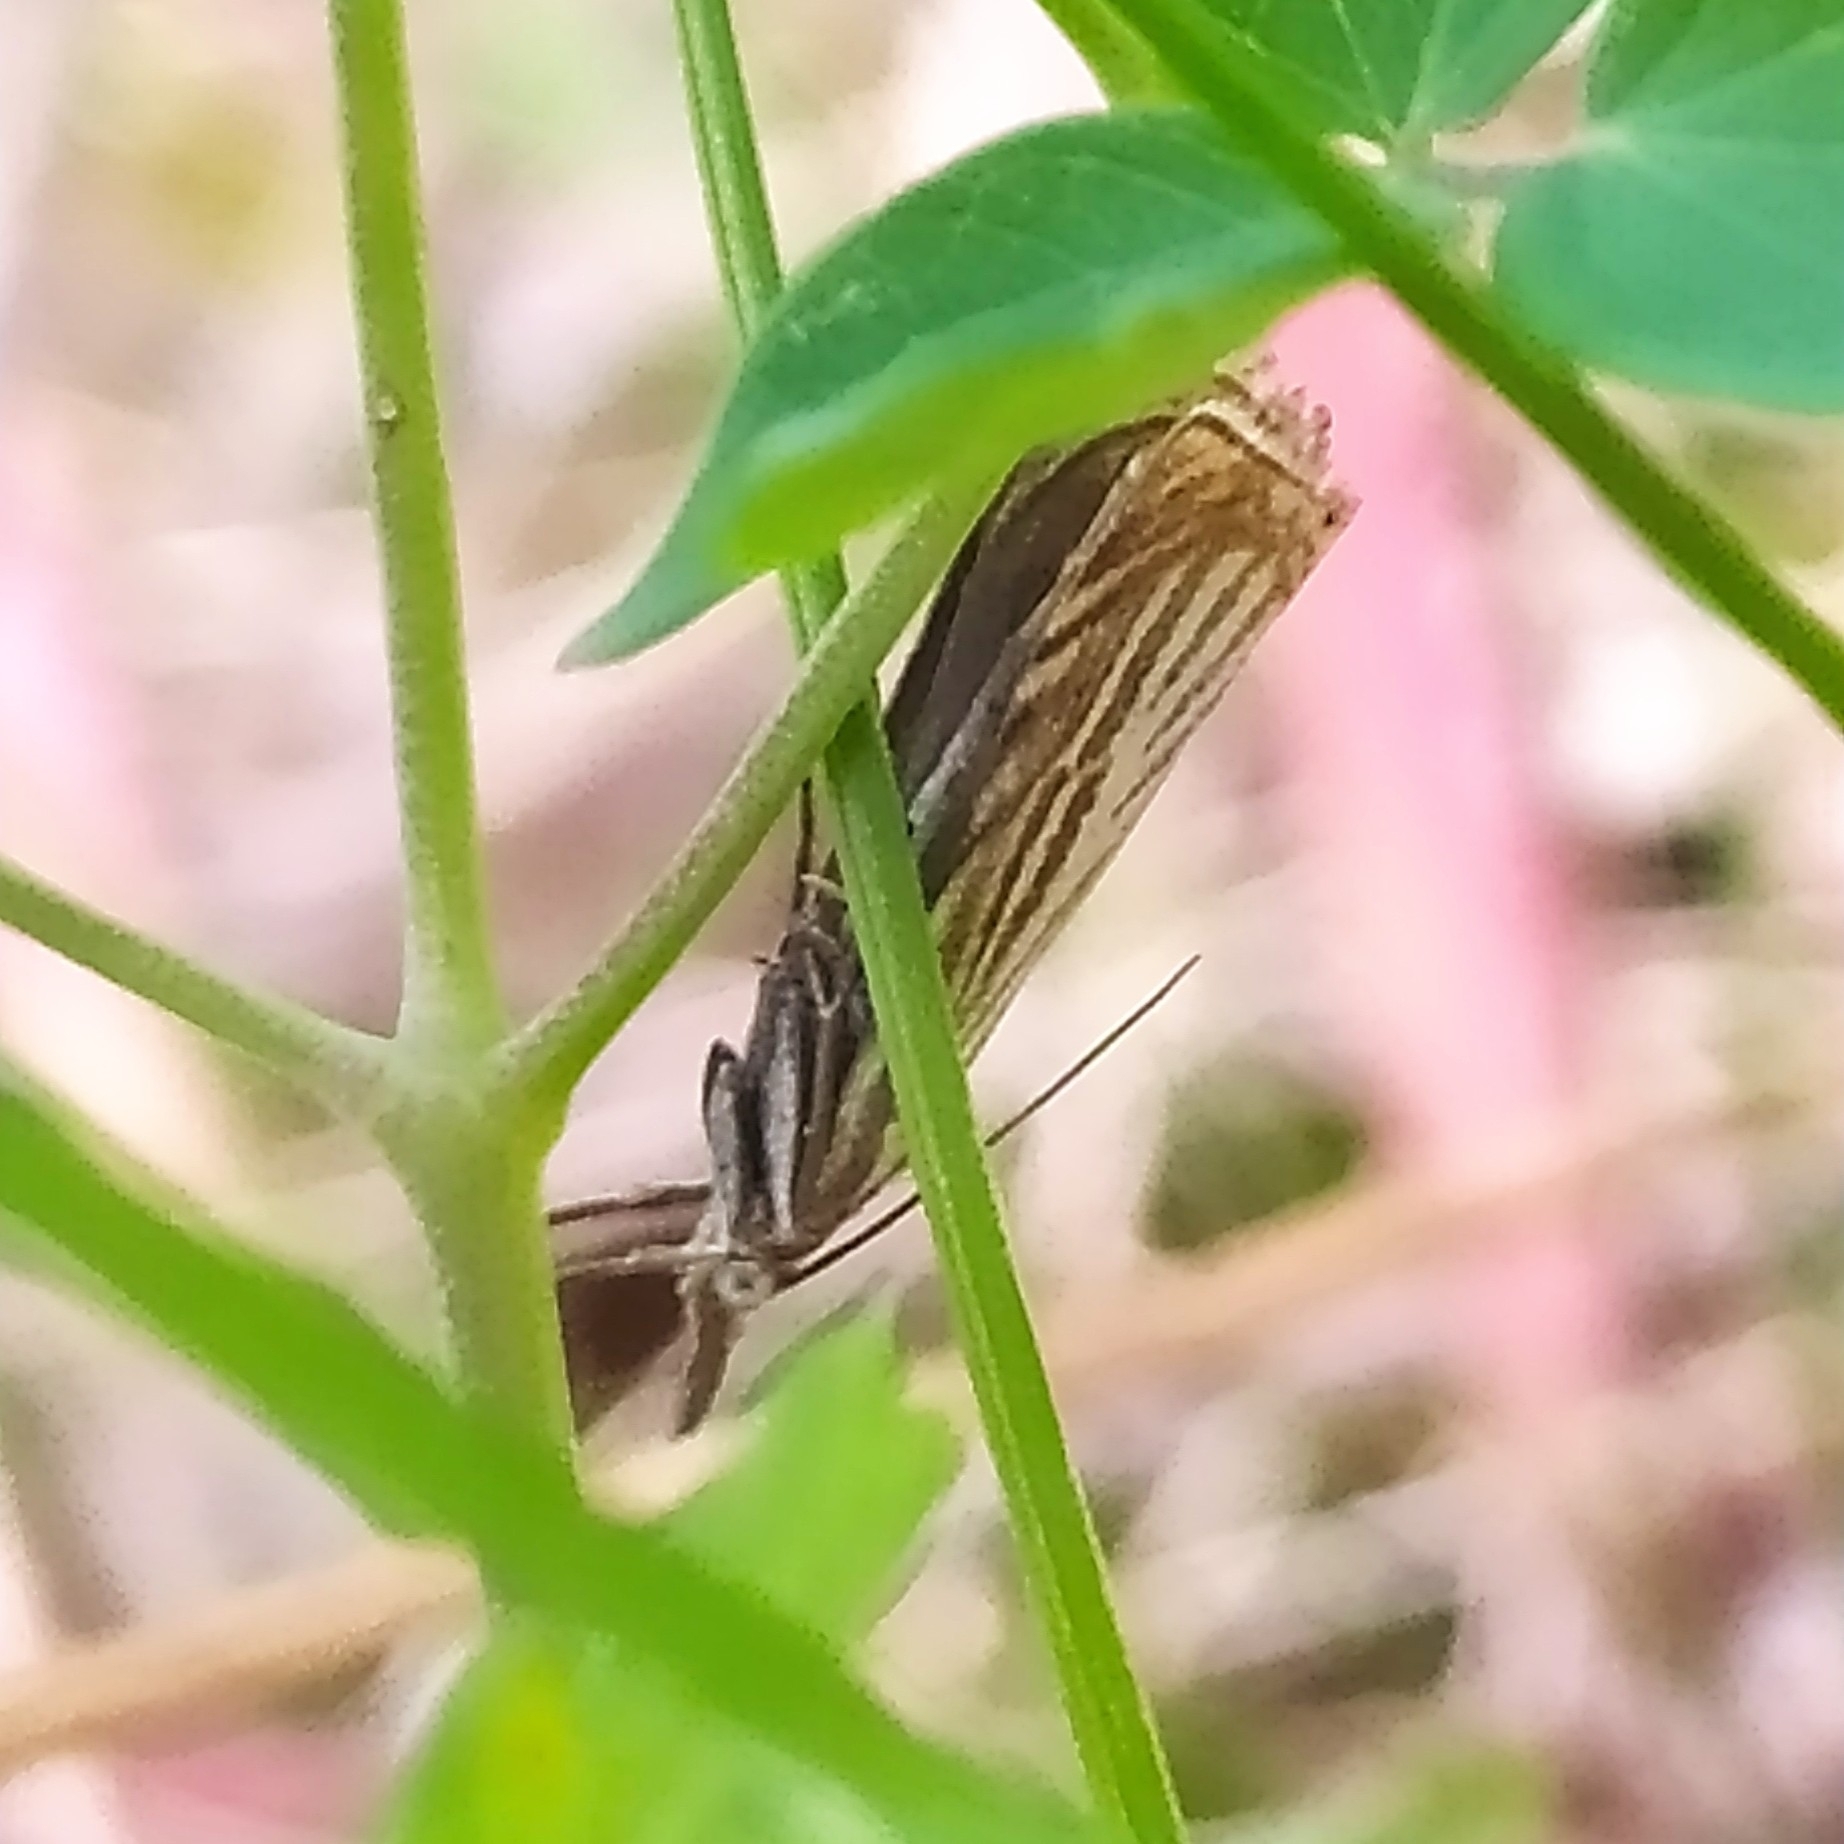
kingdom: Animalia
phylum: Arthropoda
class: Insecta
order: Lepidoptera
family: Crambidae
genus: Chrysoteuchia
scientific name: Chrysoteuchia culmella
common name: Garden grass-veneer
